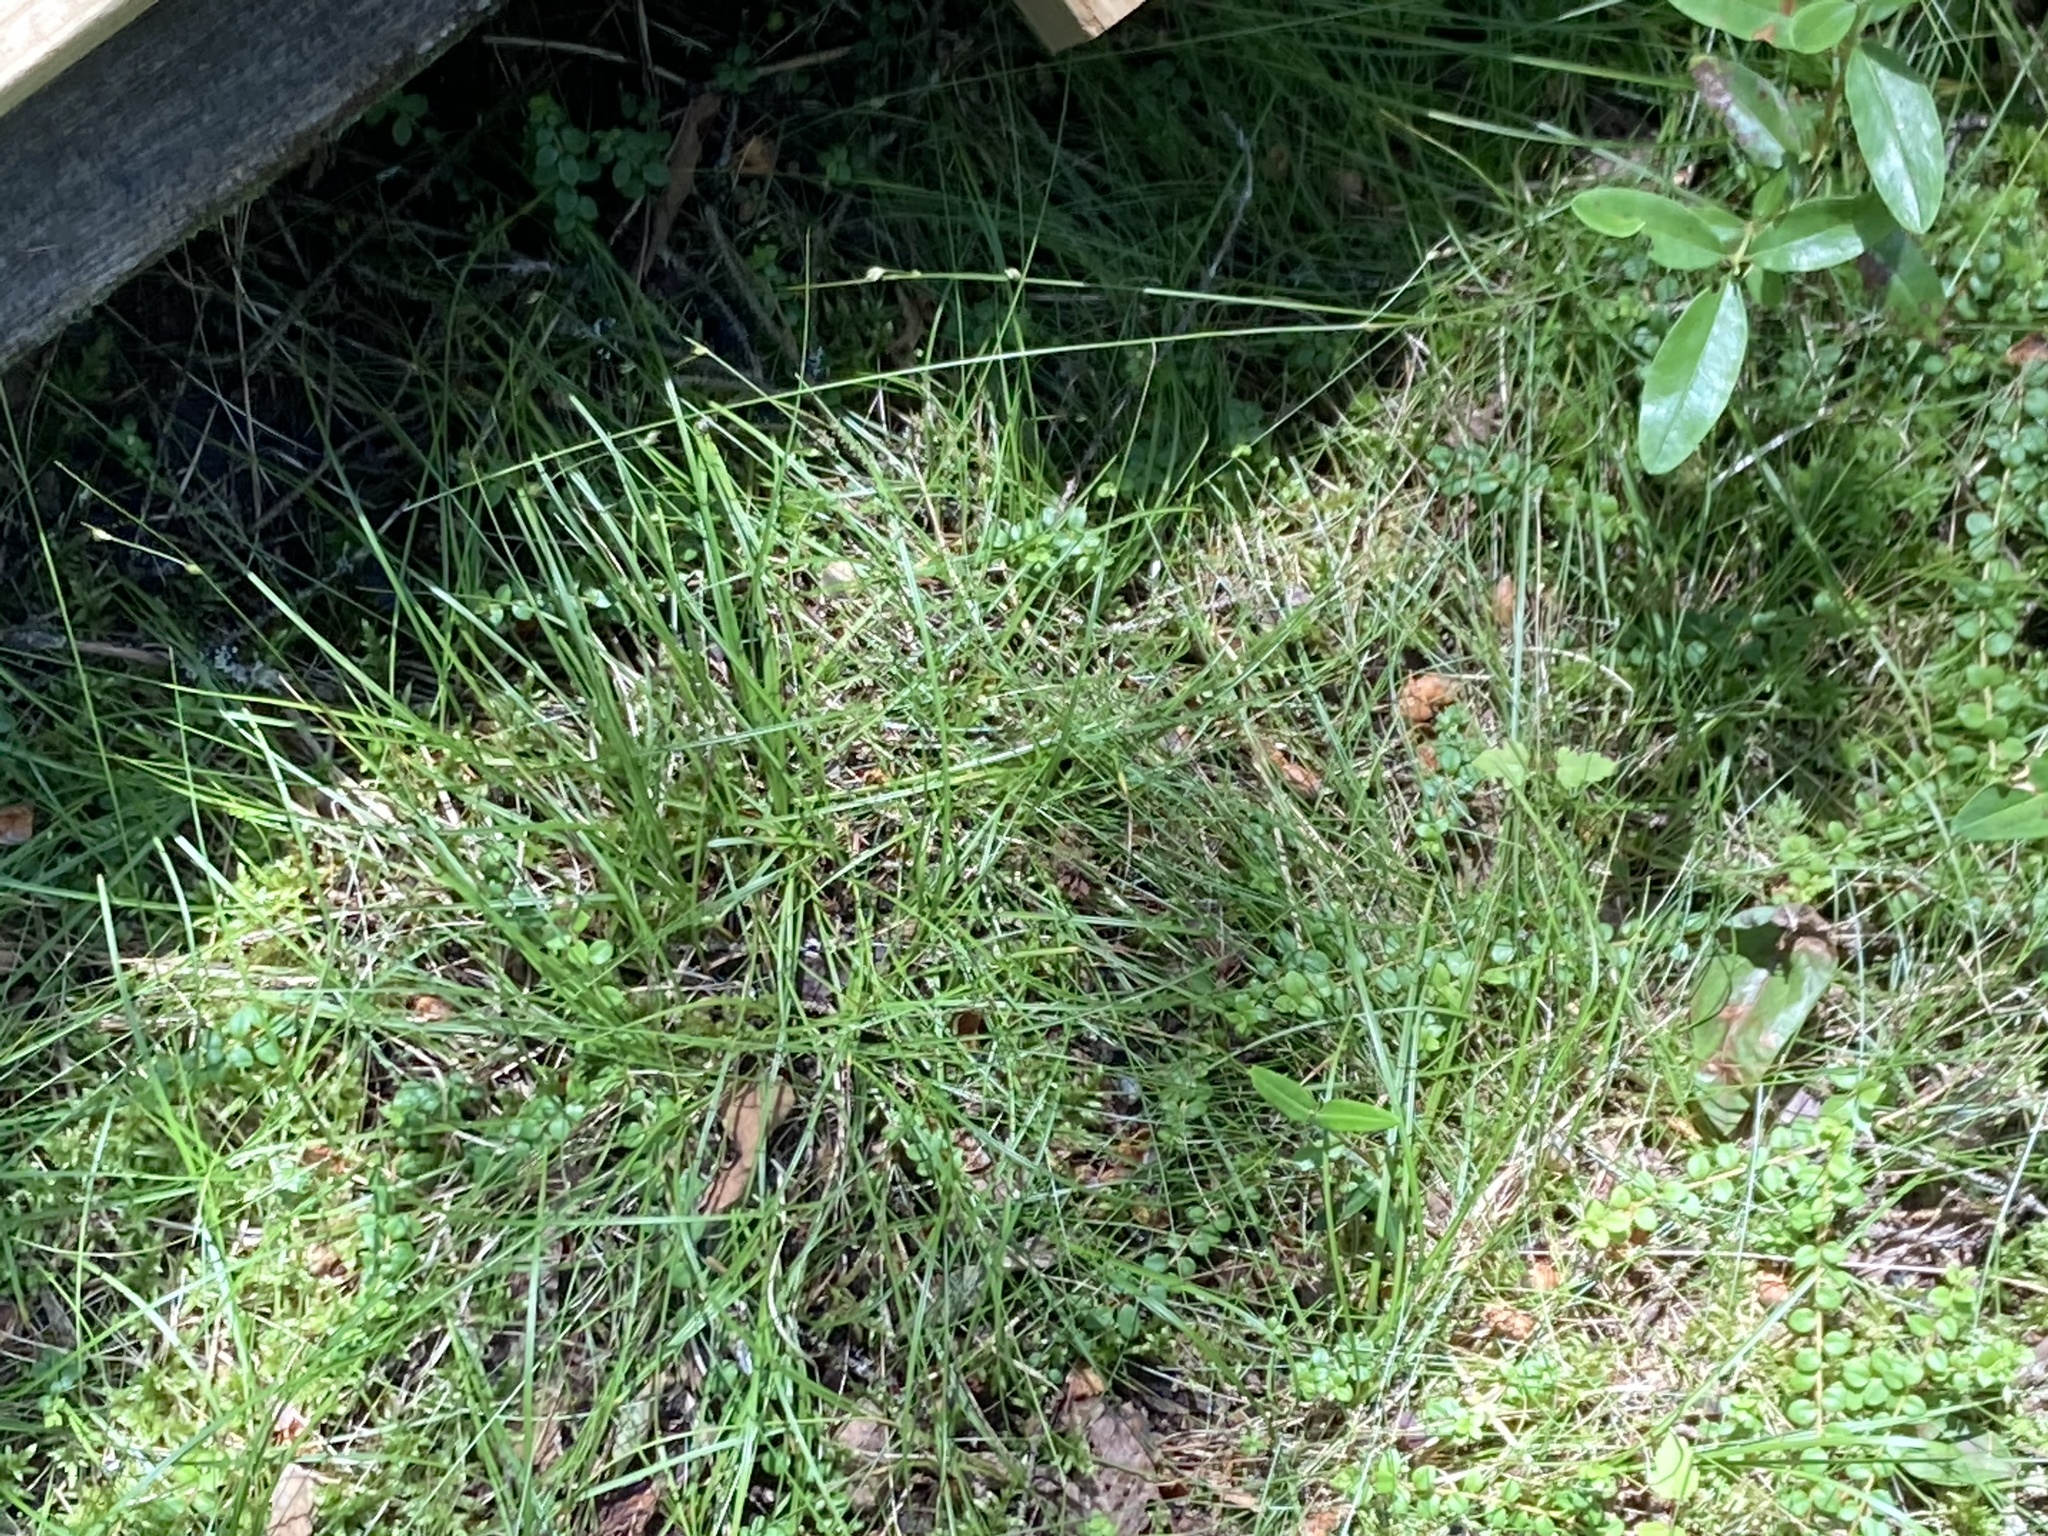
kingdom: Plantae
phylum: Tracheophyta
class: Liliopsida
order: Poales
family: Cyperaceae
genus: Carex
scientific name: Carex trisperma
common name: Three-seeded sedge
